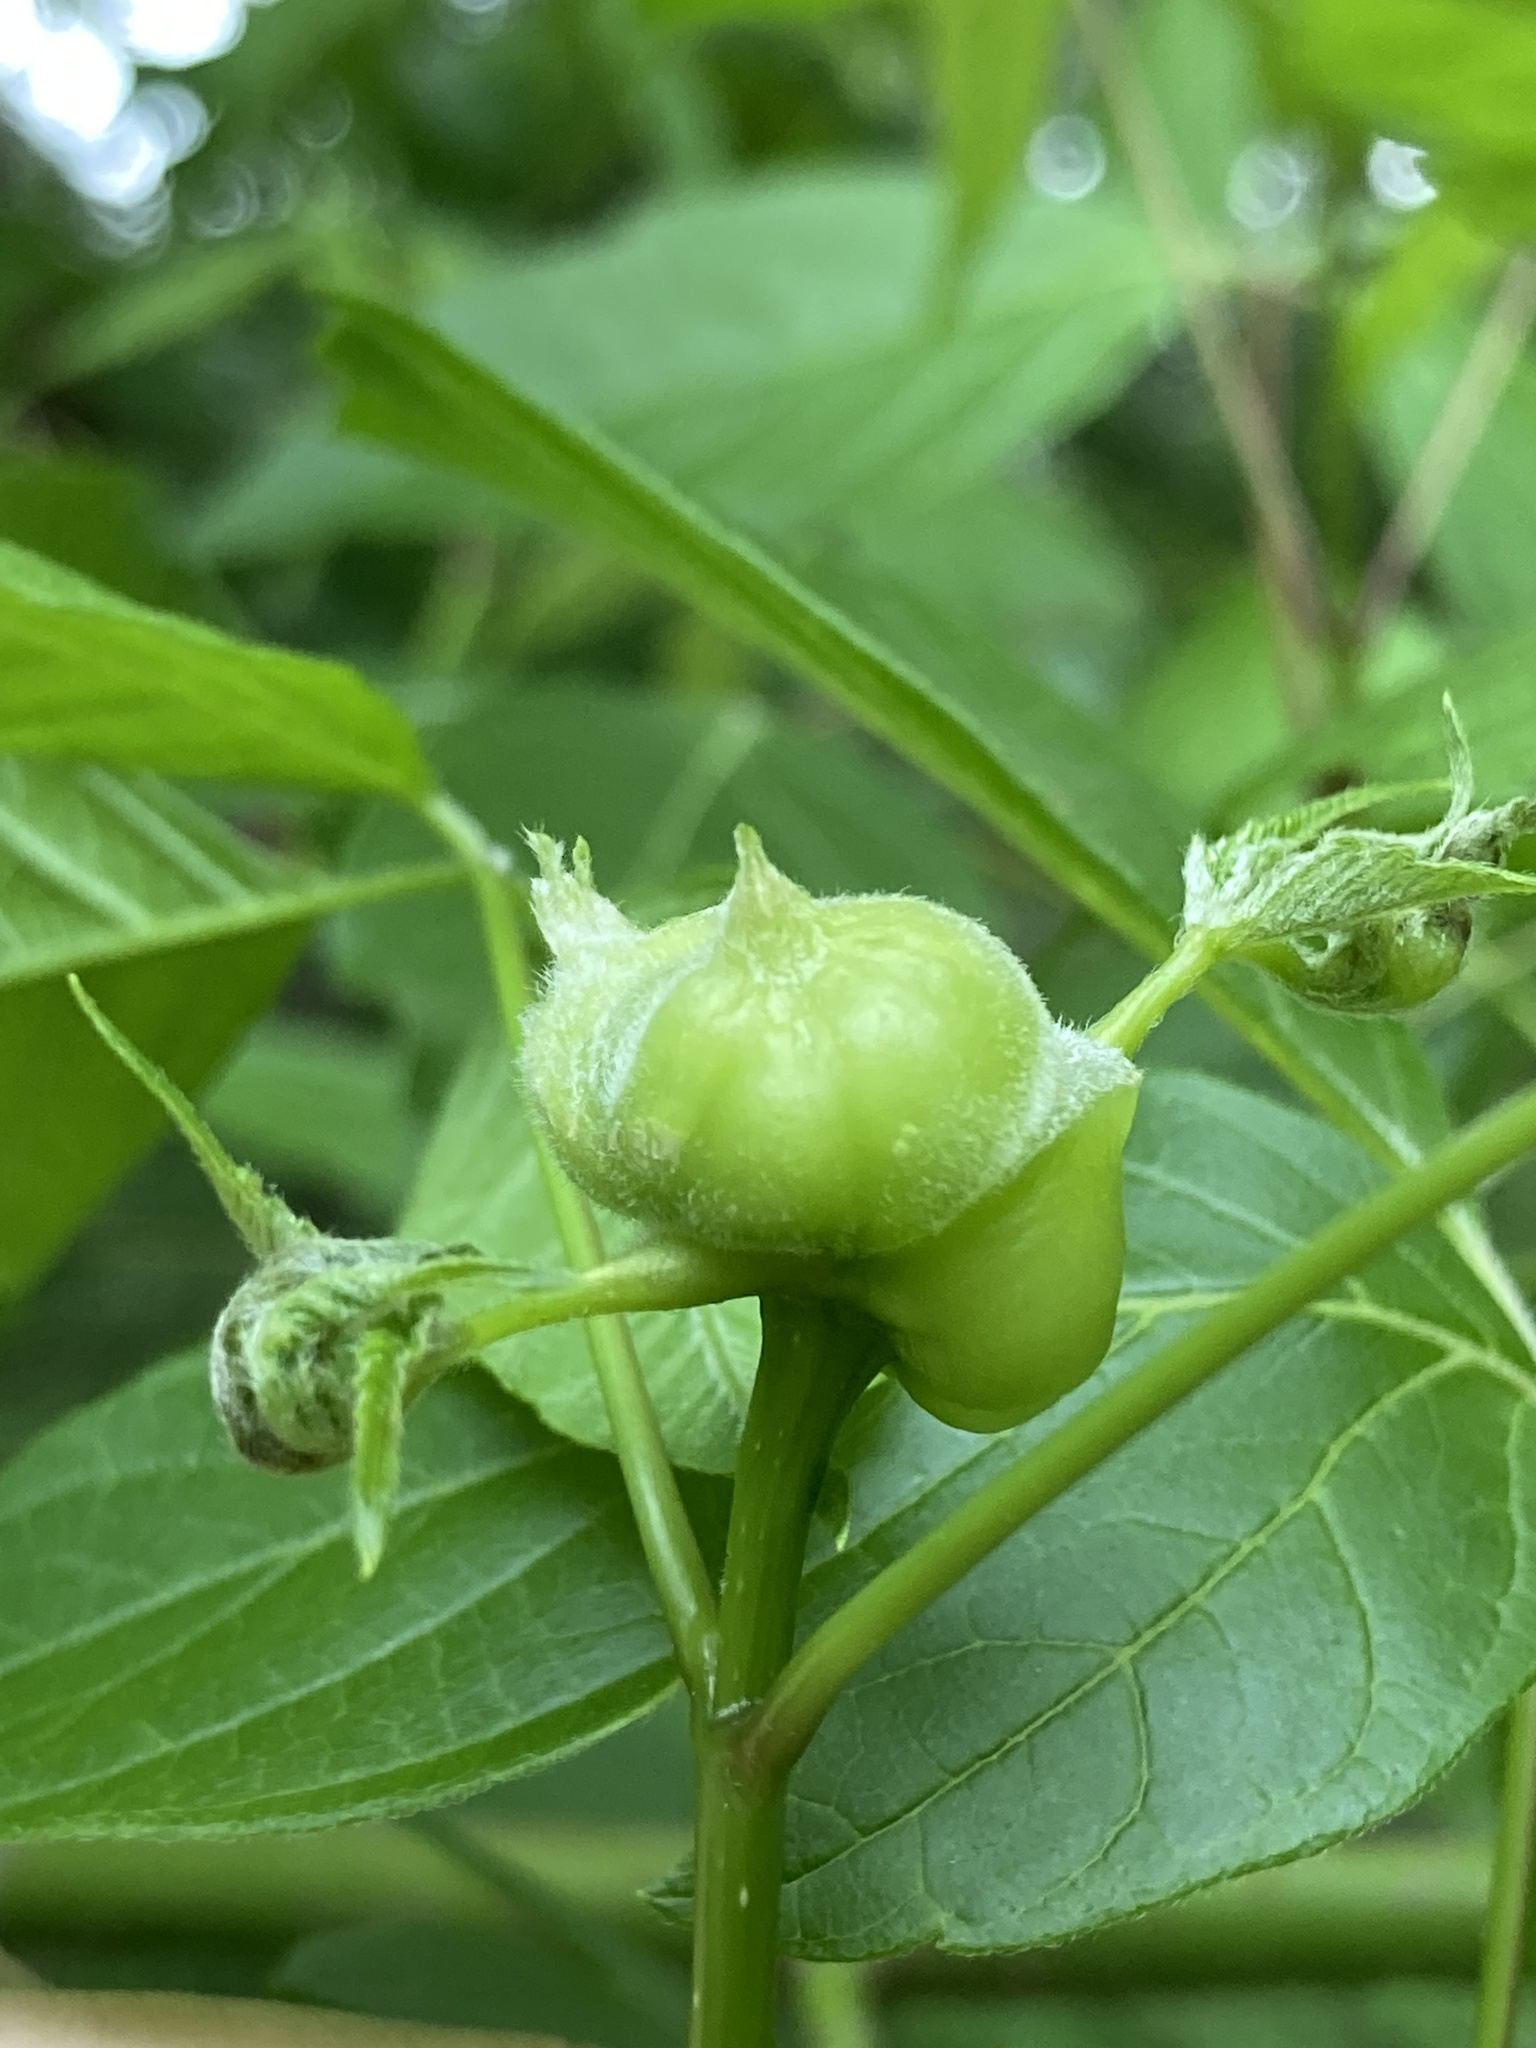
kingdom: Animalia
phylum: Arthropoda
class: Insecta
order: Diptera
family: Cecidomyiidae
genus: Contarinia
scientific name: Contarinia negundinis
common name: Boxelder budgall midge
